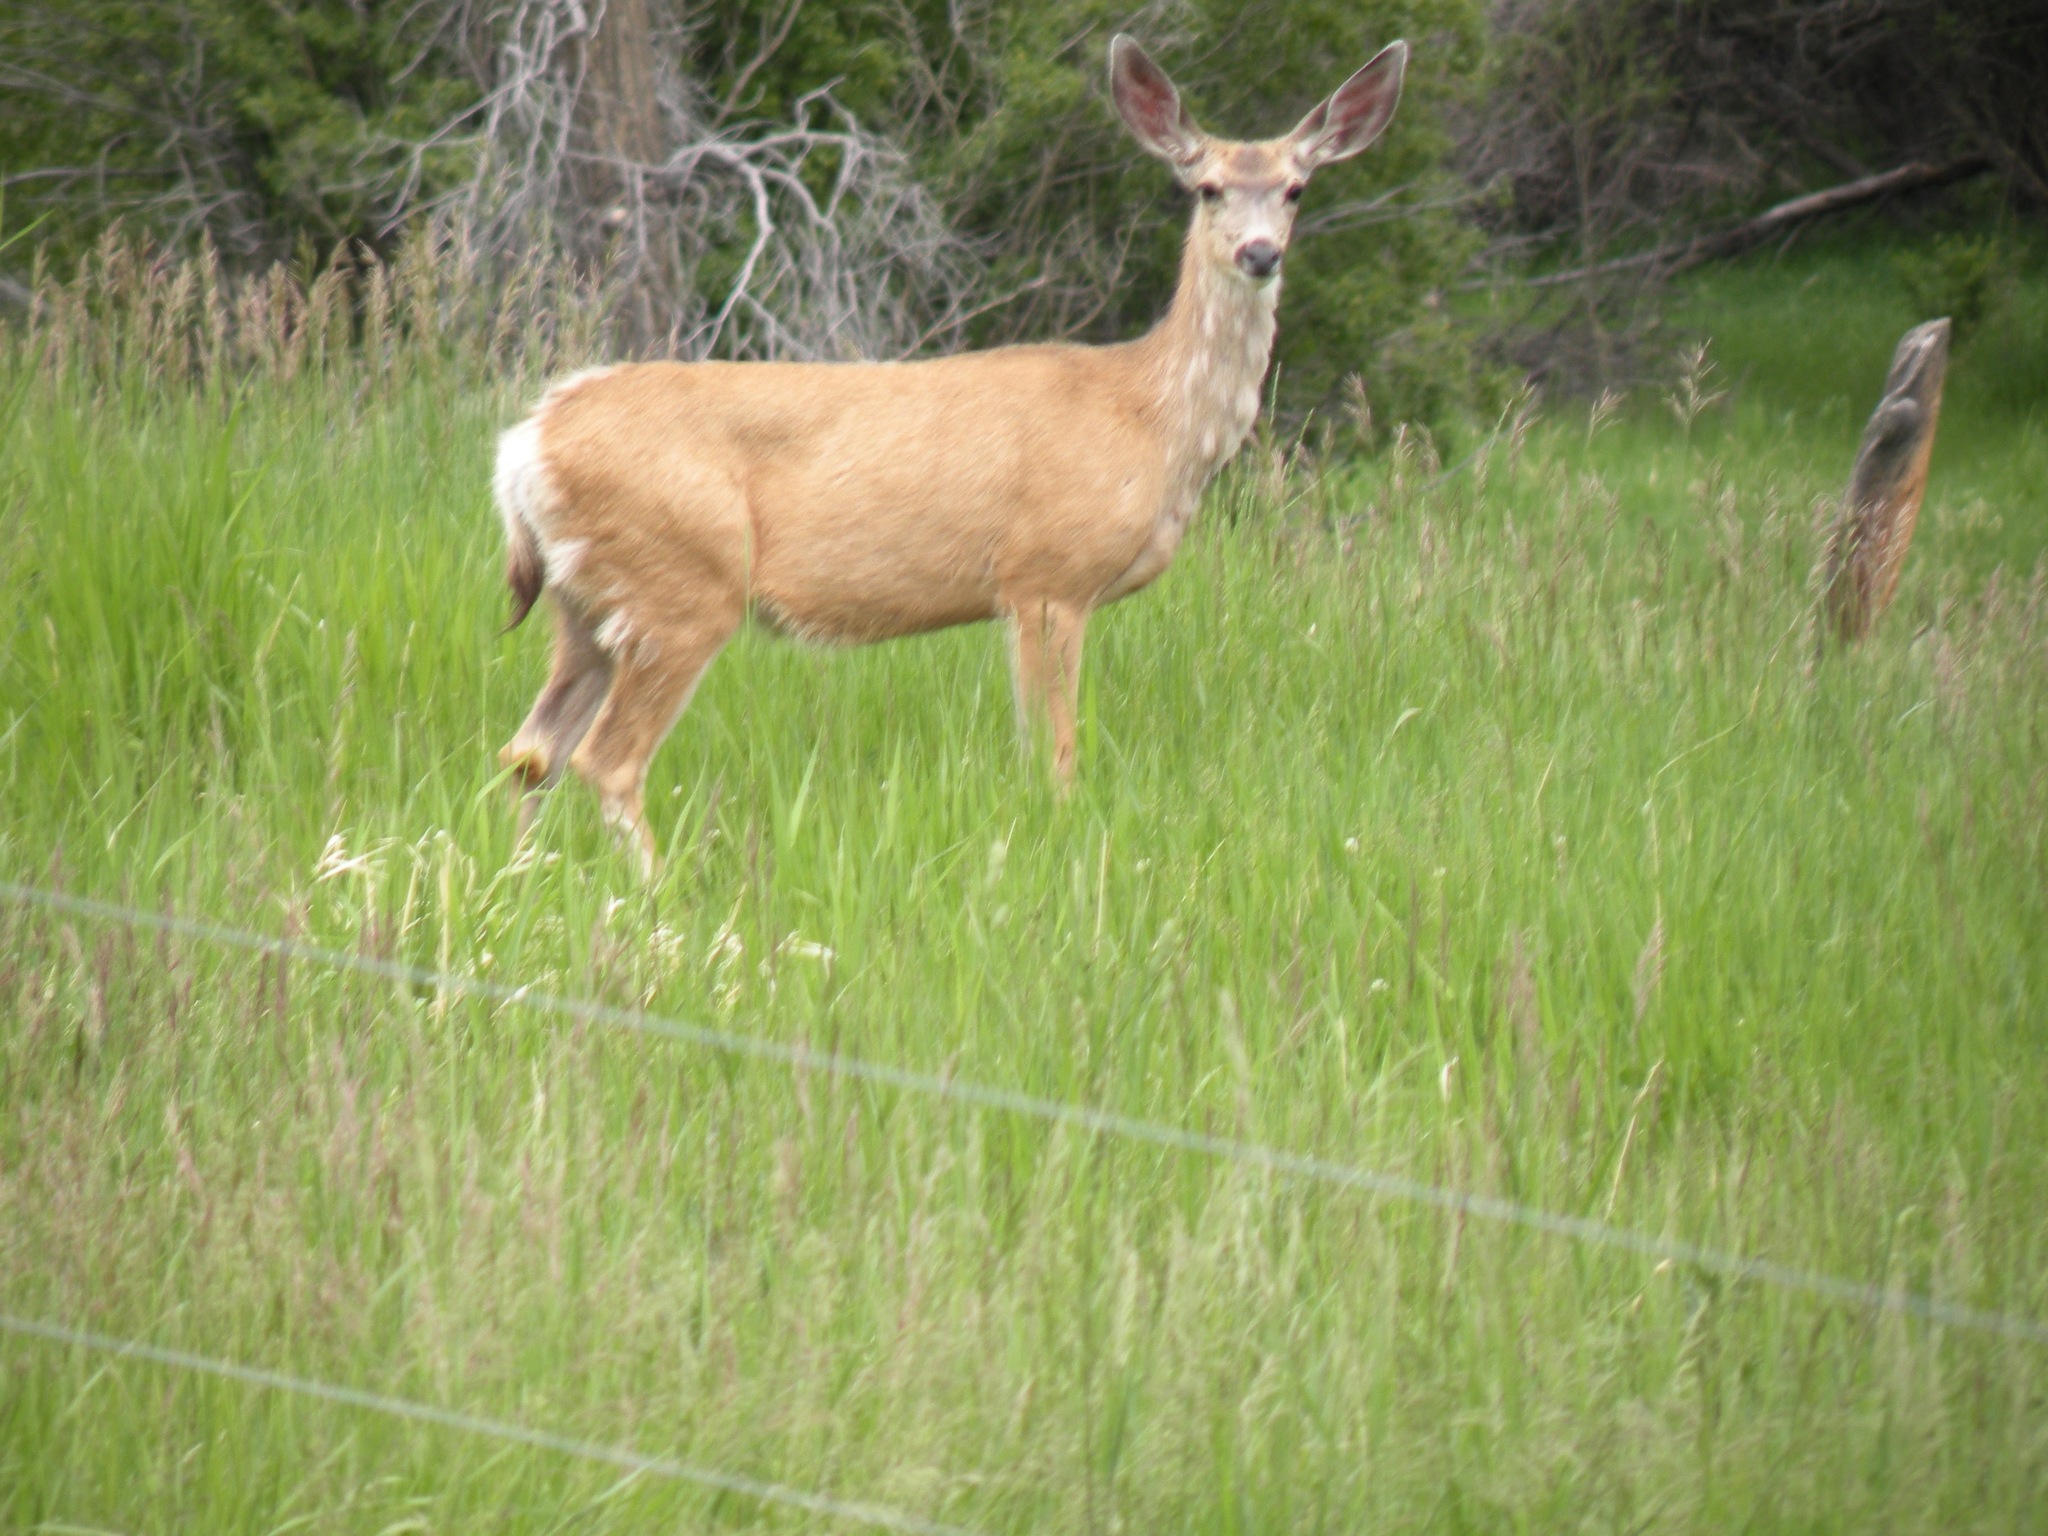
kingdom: Animalia
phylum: Chordata
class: Mammalia
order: Artiodactyla
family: Cervidae
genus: Odocoileus
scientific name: Odocoileus hemionus
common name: Mule deer
